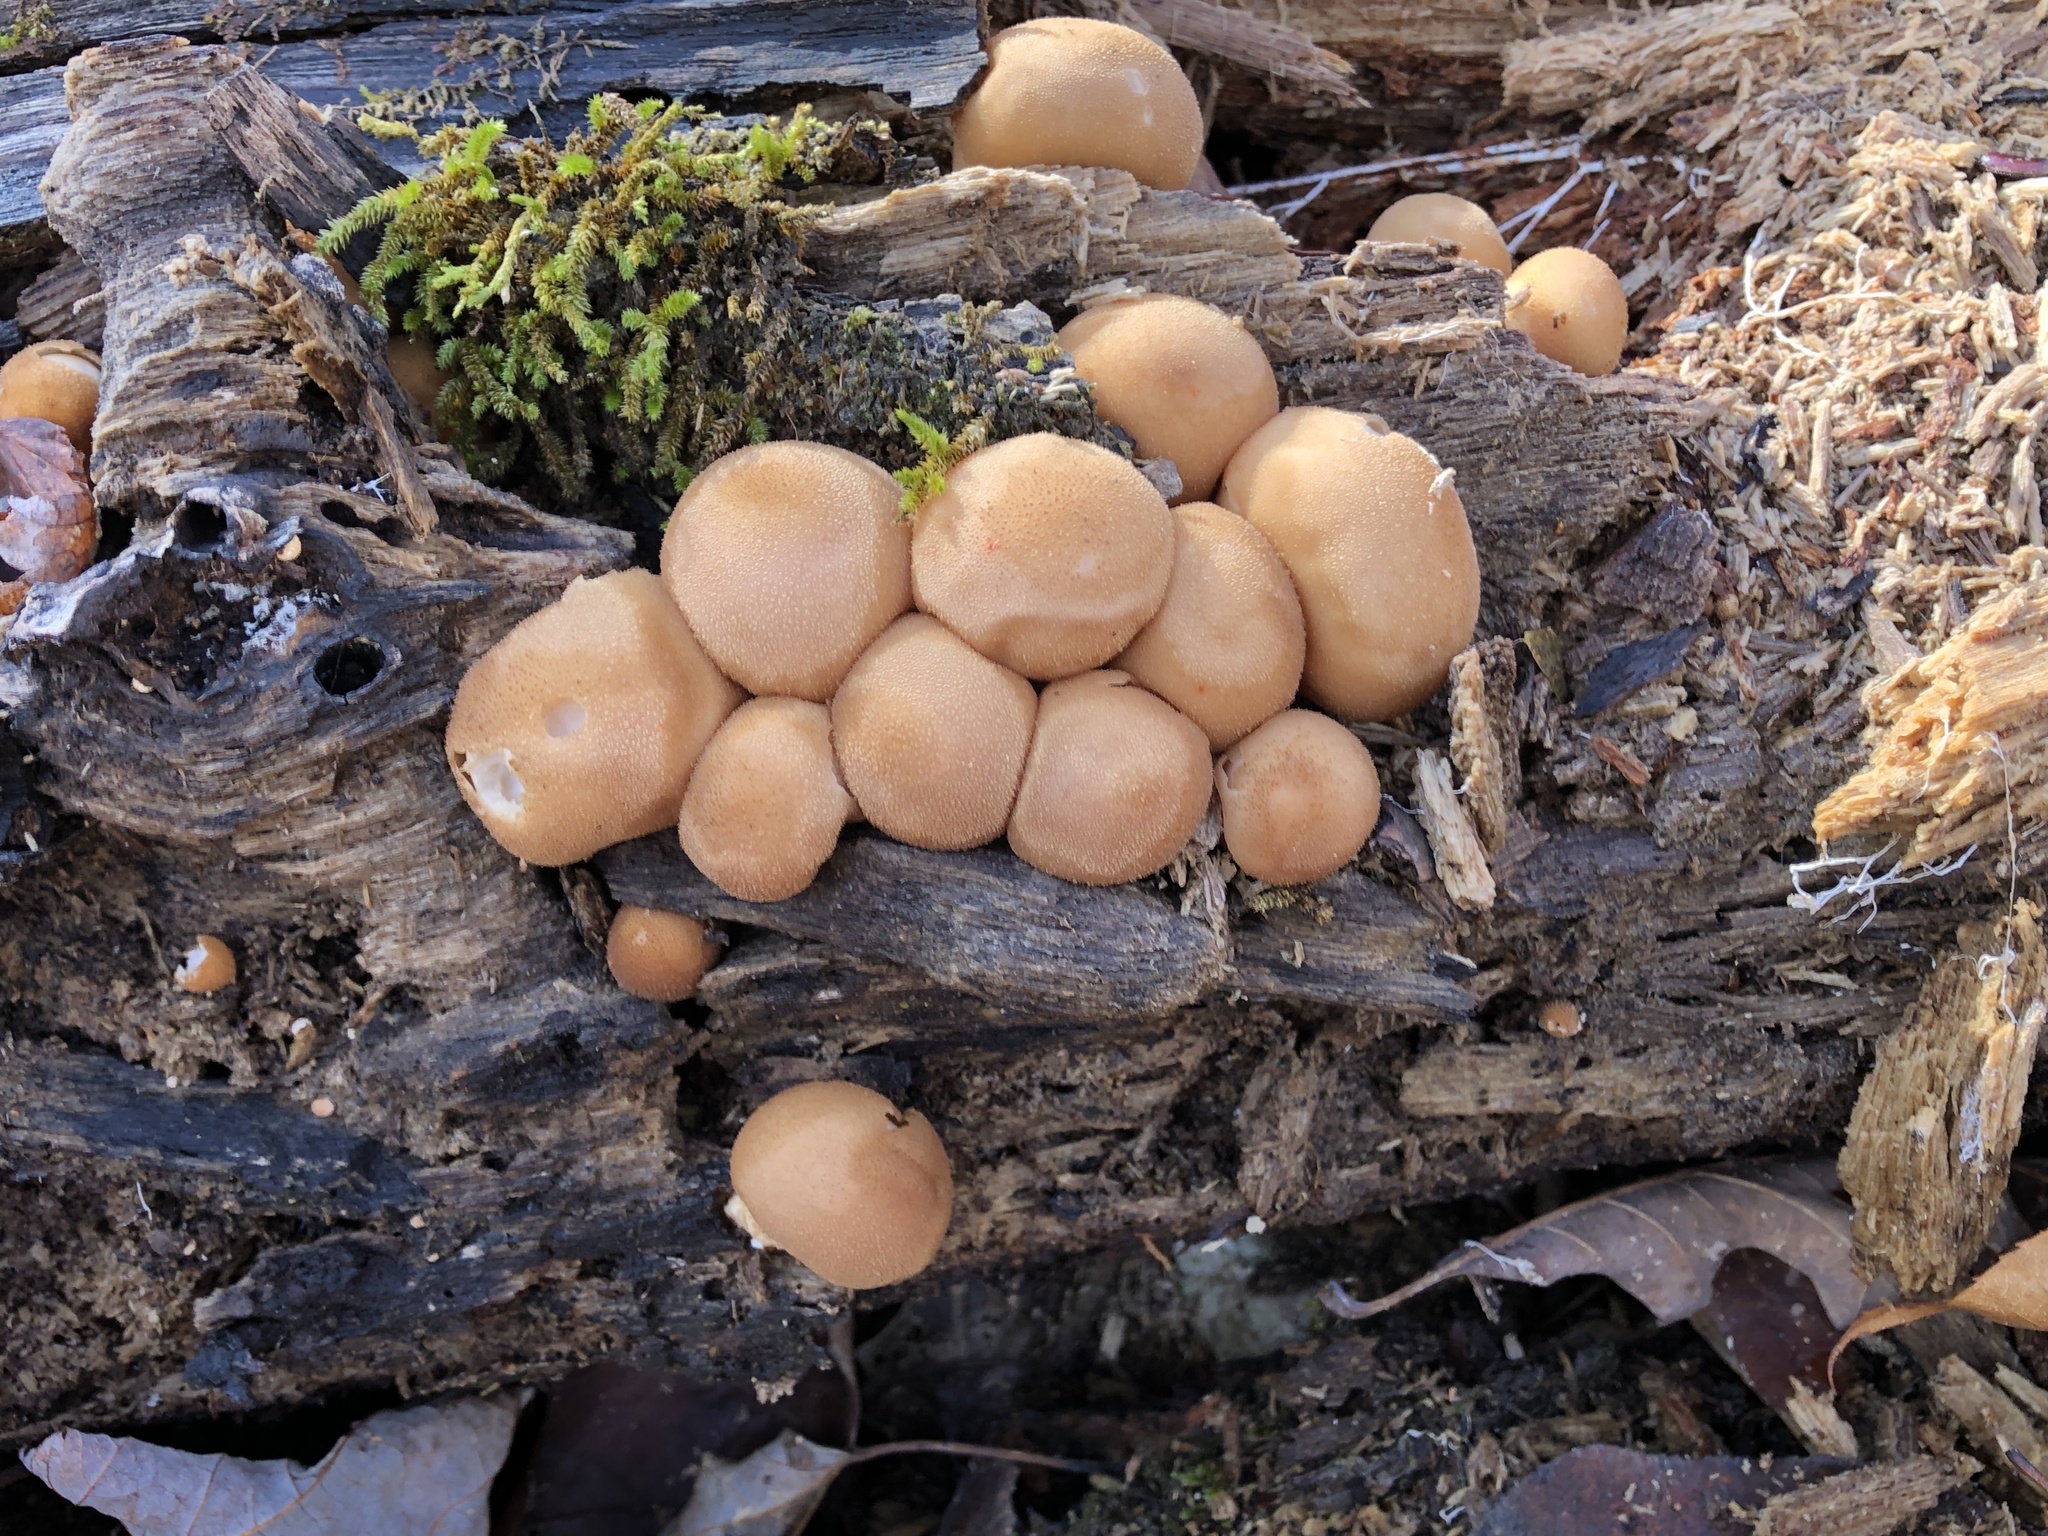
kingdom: Fungi
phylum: Basidiomycota
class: Agaricomycetes
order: Agaricales
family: Lycoperdaceae
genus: Apioperdon
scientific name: Apioperdon pyriforme
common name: Pear-shaped puffball
